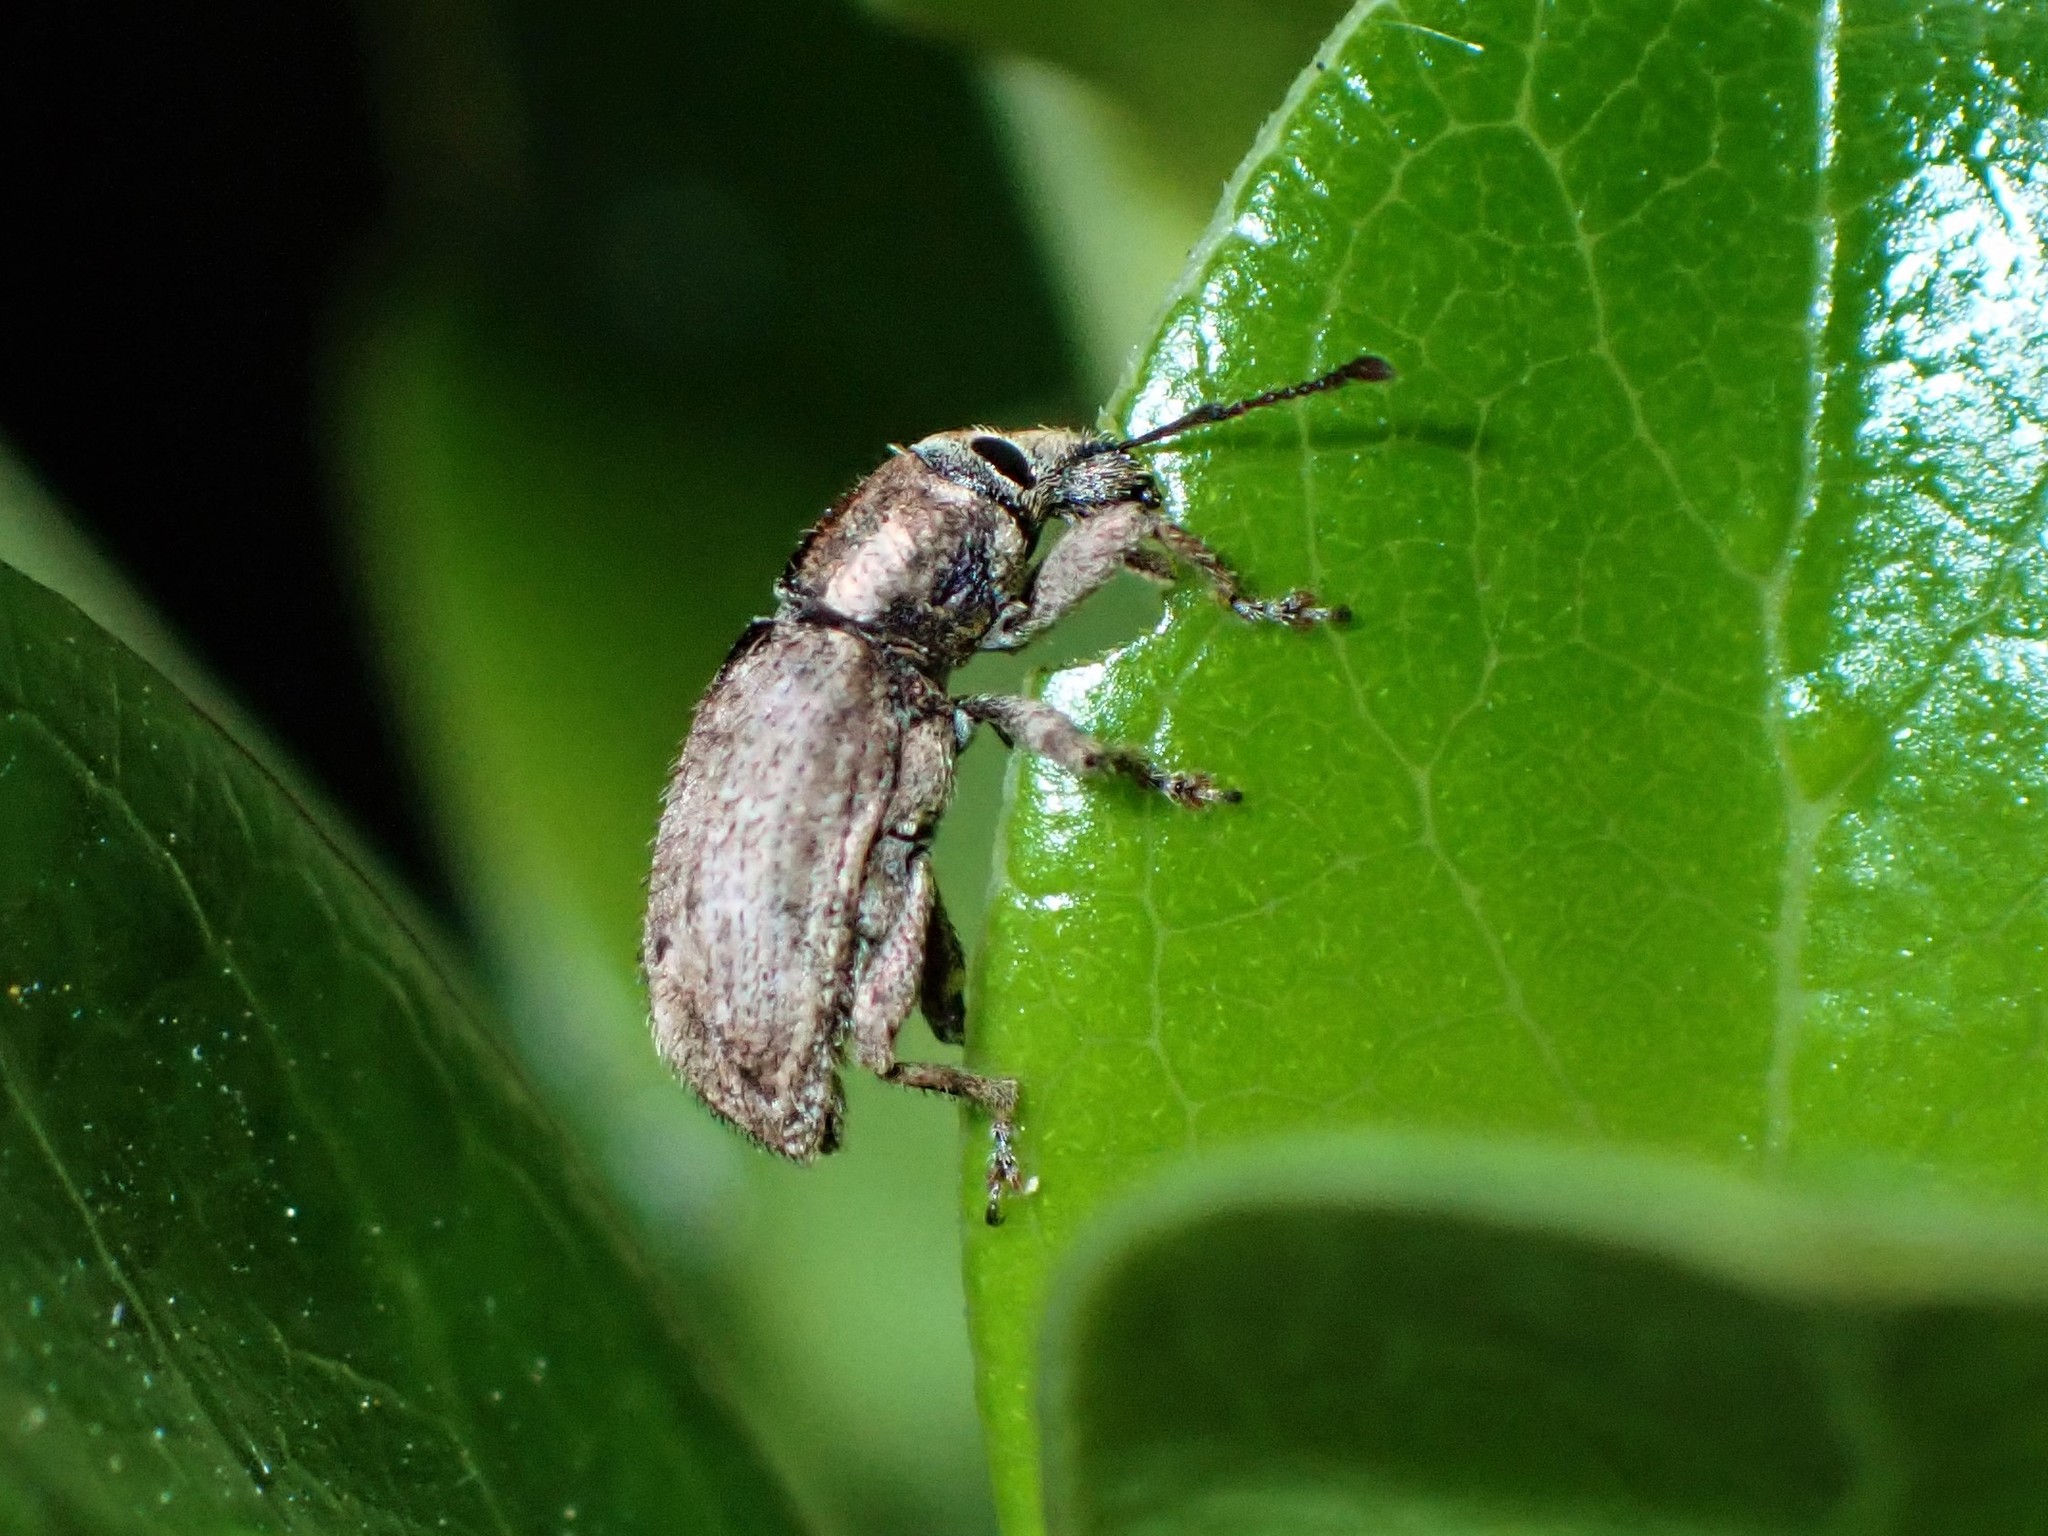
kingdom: Animalia
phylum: Arthropoda
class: Insecta
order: Coleoptera
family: Curculionidae
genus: Chalepistes
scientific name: Chalepistes compressus
